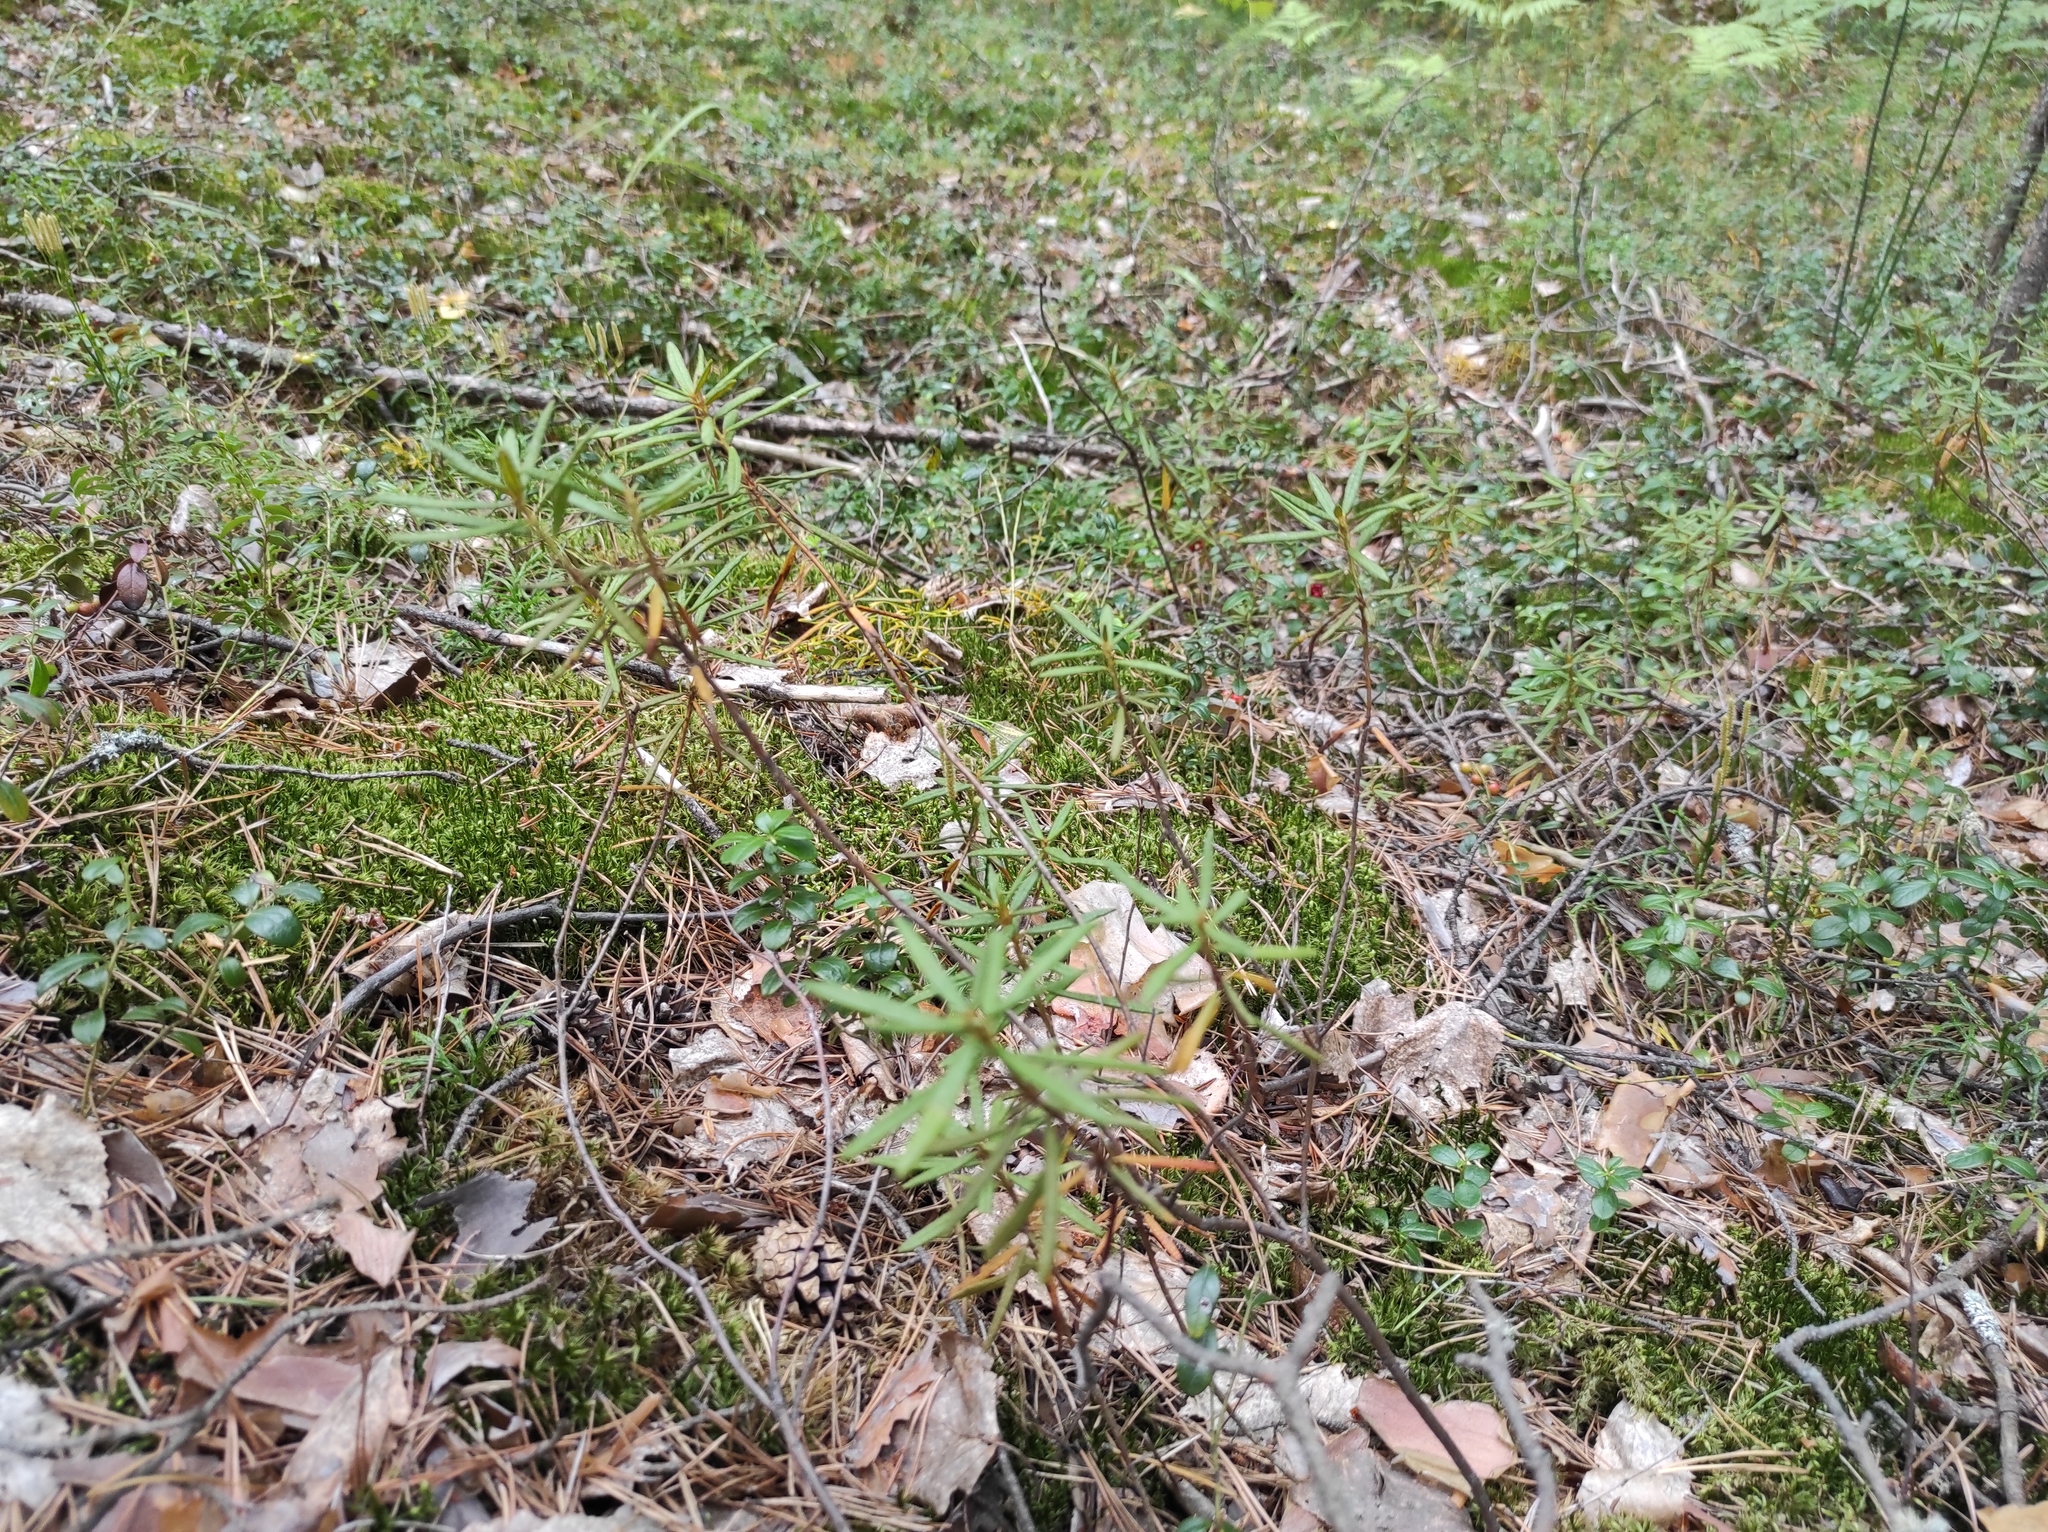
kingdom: Plantae
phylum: Tracheophyta
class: Magnoliopsida
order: Ericales
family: Ericaceae
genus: Rhododendron
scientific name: Rhododendron tomentosum
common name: Marsh labrador tea
